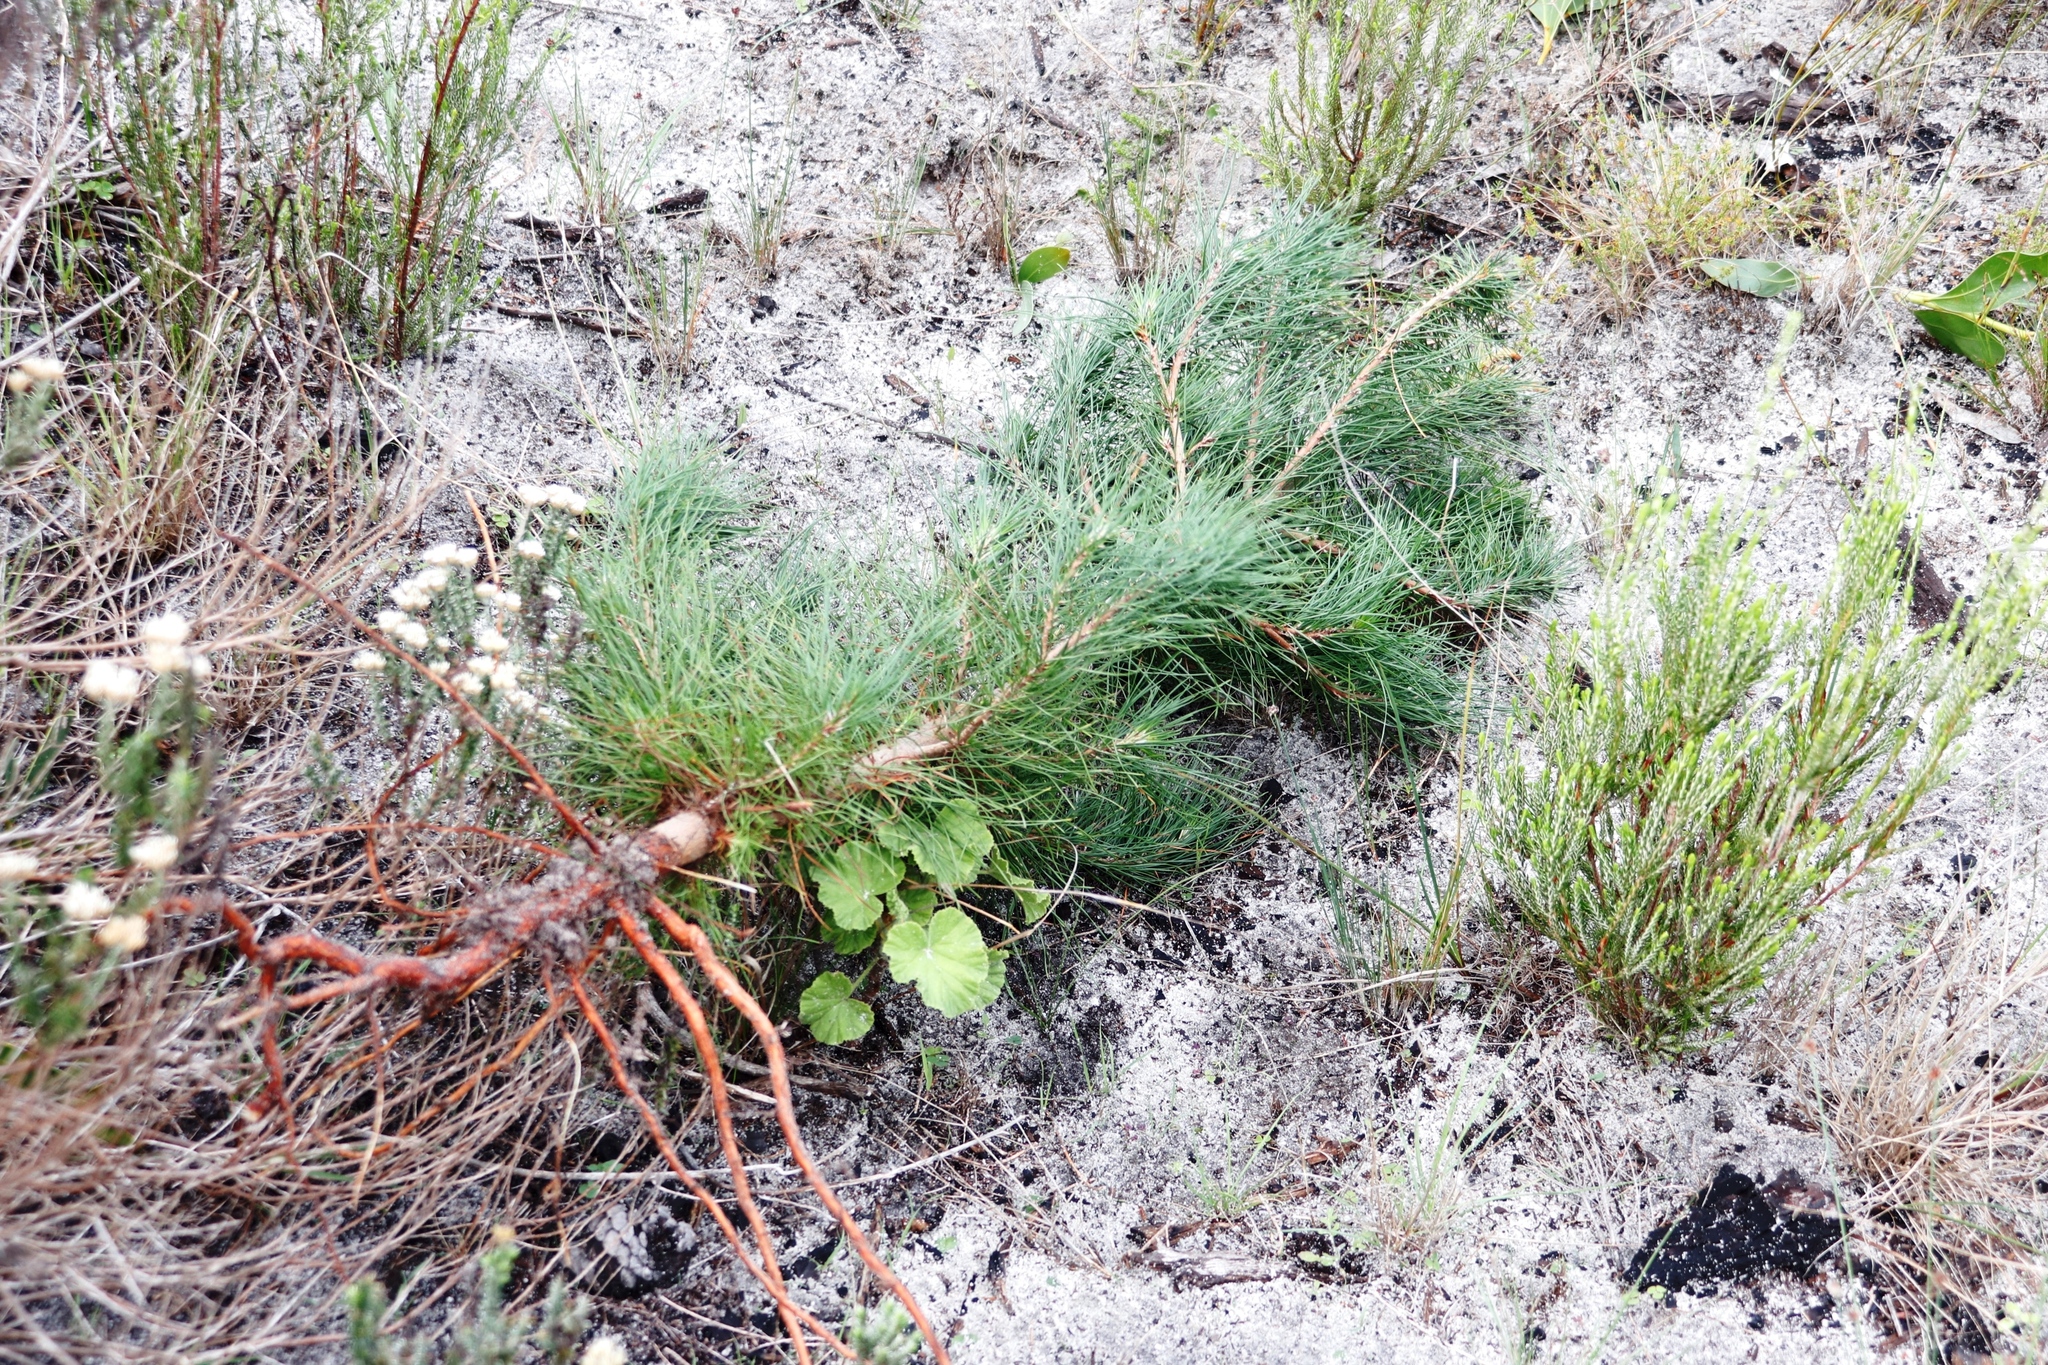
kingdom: Plantae
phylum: Tracheophyta
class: Pinopsida
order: Pinales
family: Pinaceae
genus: Pinus
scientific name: Pinus radiata
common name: Monterey pine
